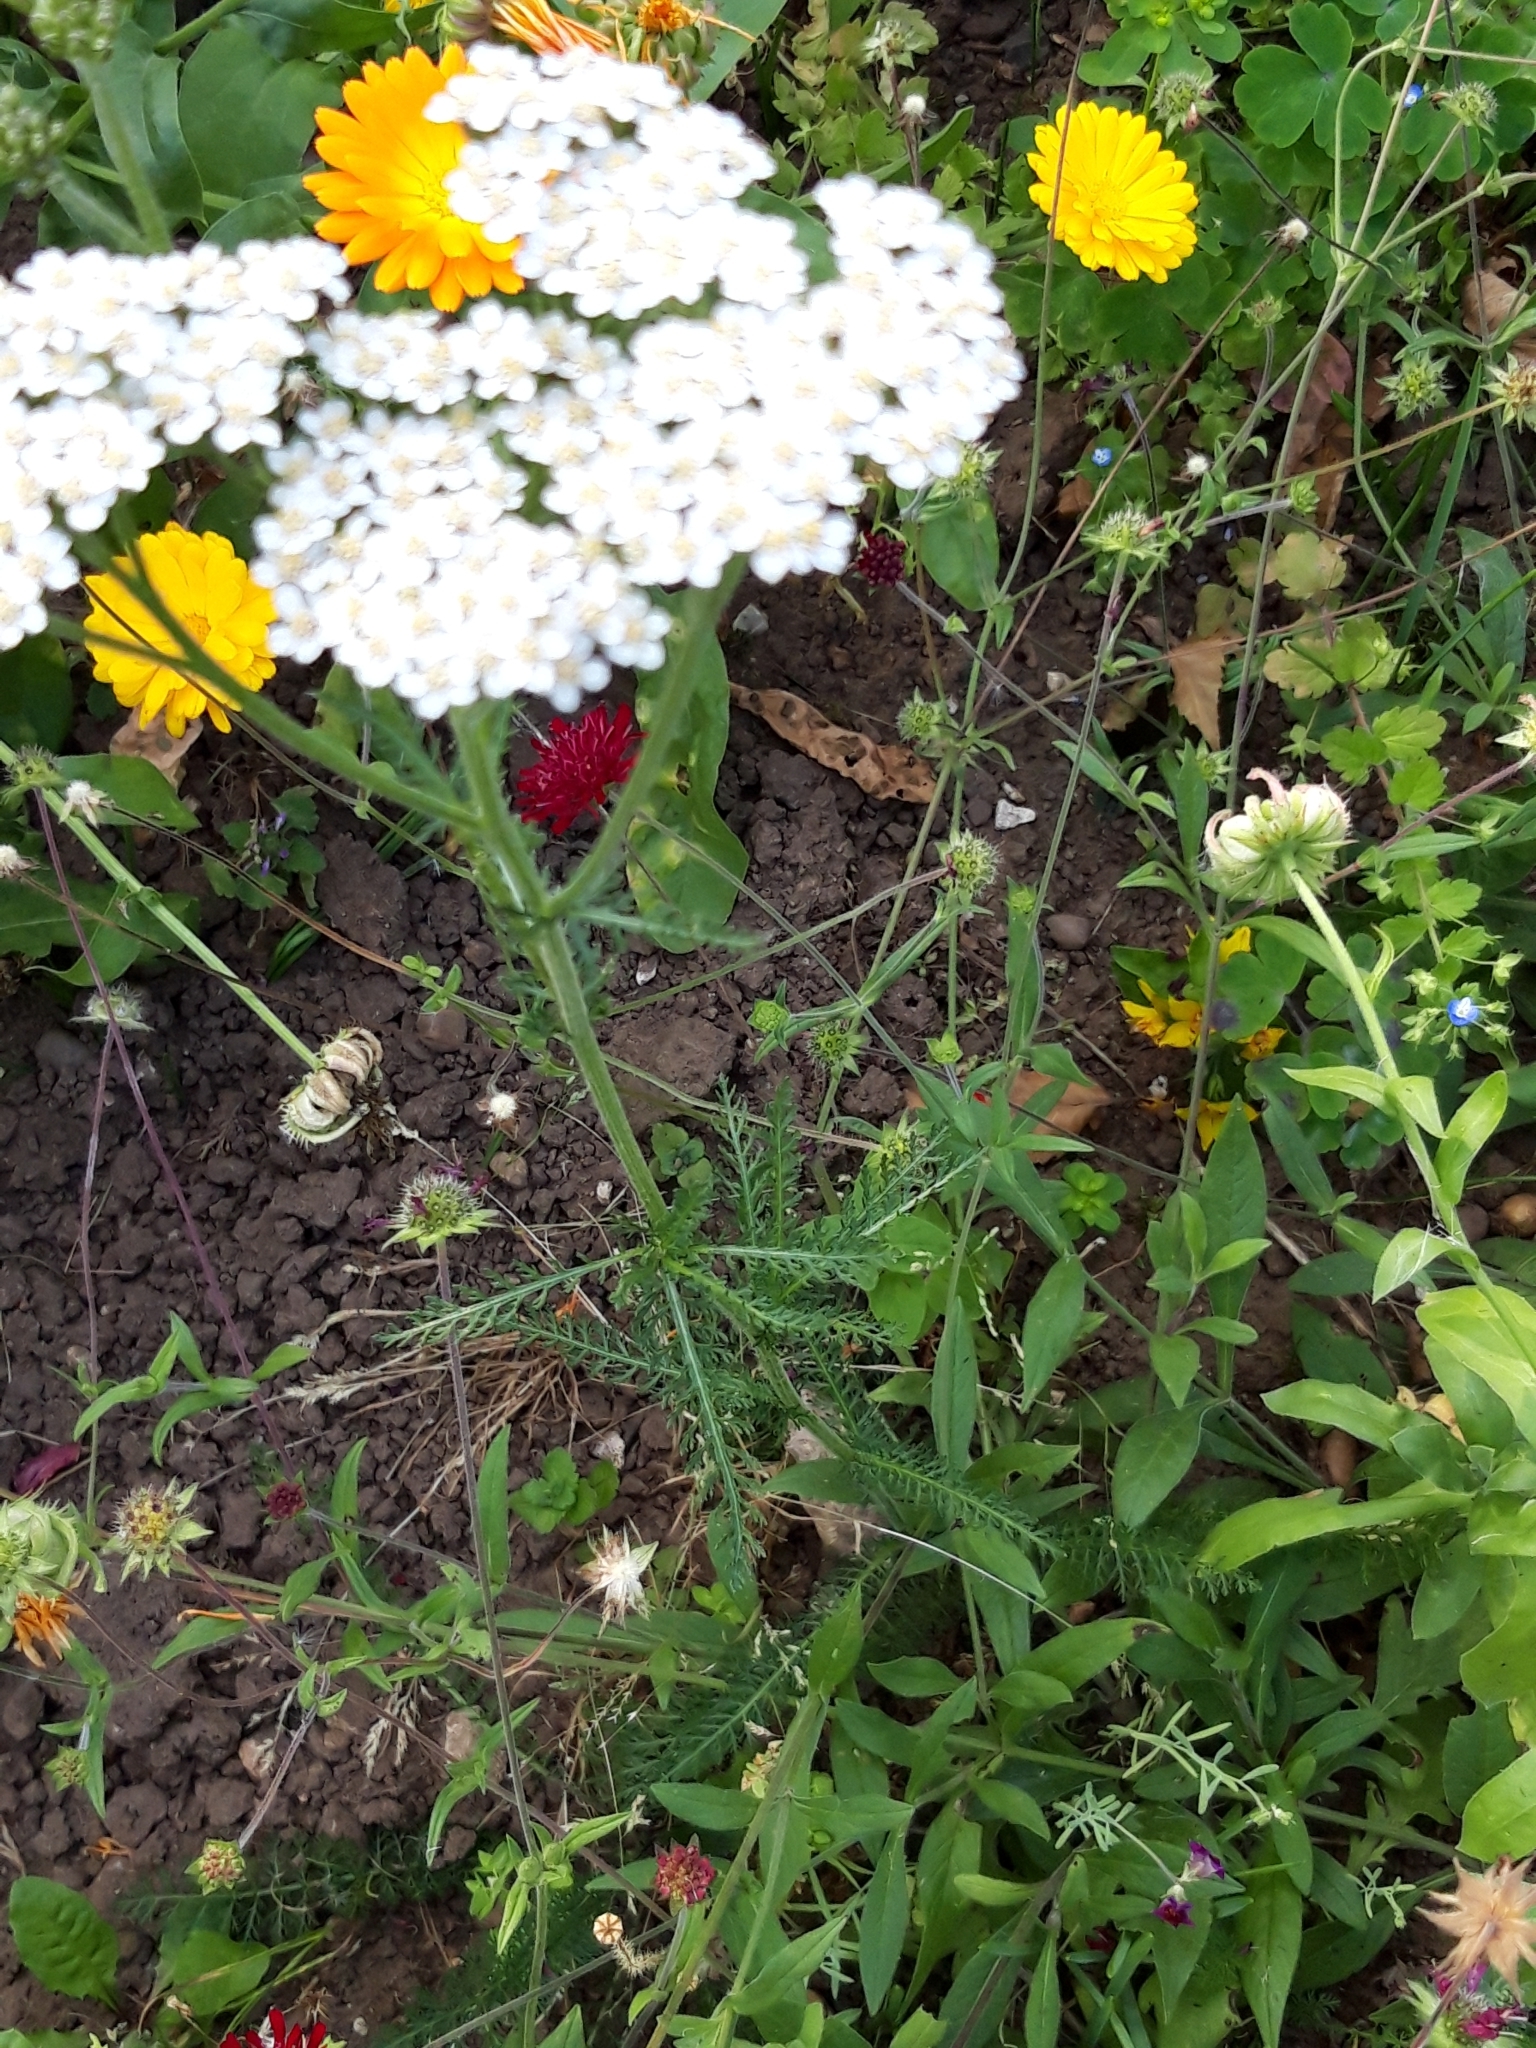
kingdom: Plantae
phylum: Tracheophyta
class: Magnoliopsida
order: Asterales
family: Asteraceae
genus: Achillea
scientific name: Achillea millefolium
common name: Yarrow
